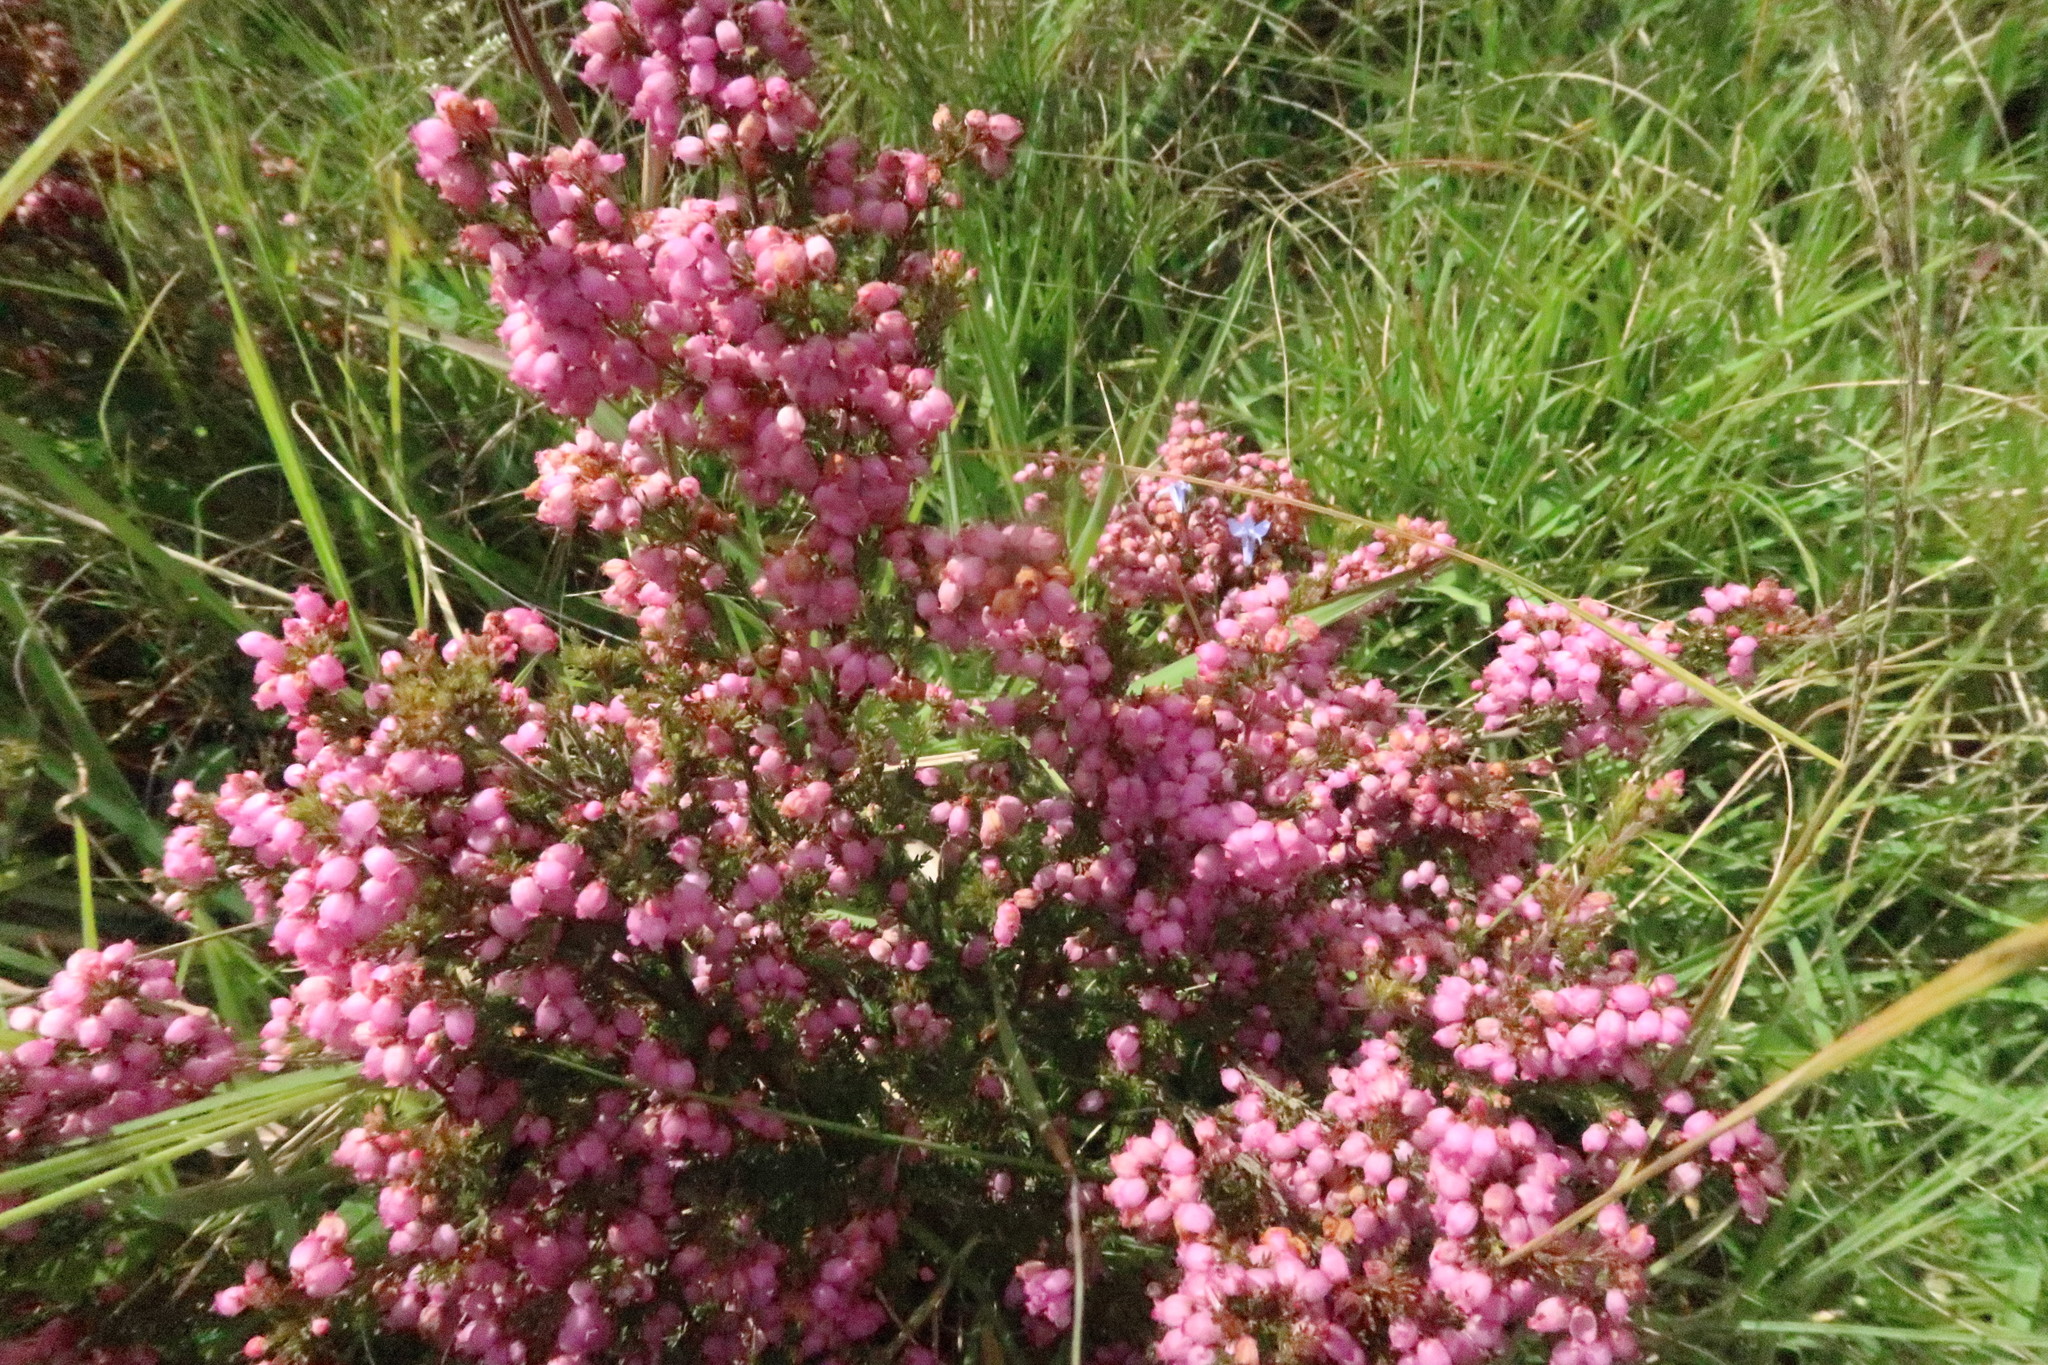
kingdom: Plantae
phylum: Tracheophyta
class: Magnoliopsida
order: Ericales
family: Ericaceae
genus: Erica
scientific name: Erica gracilis
